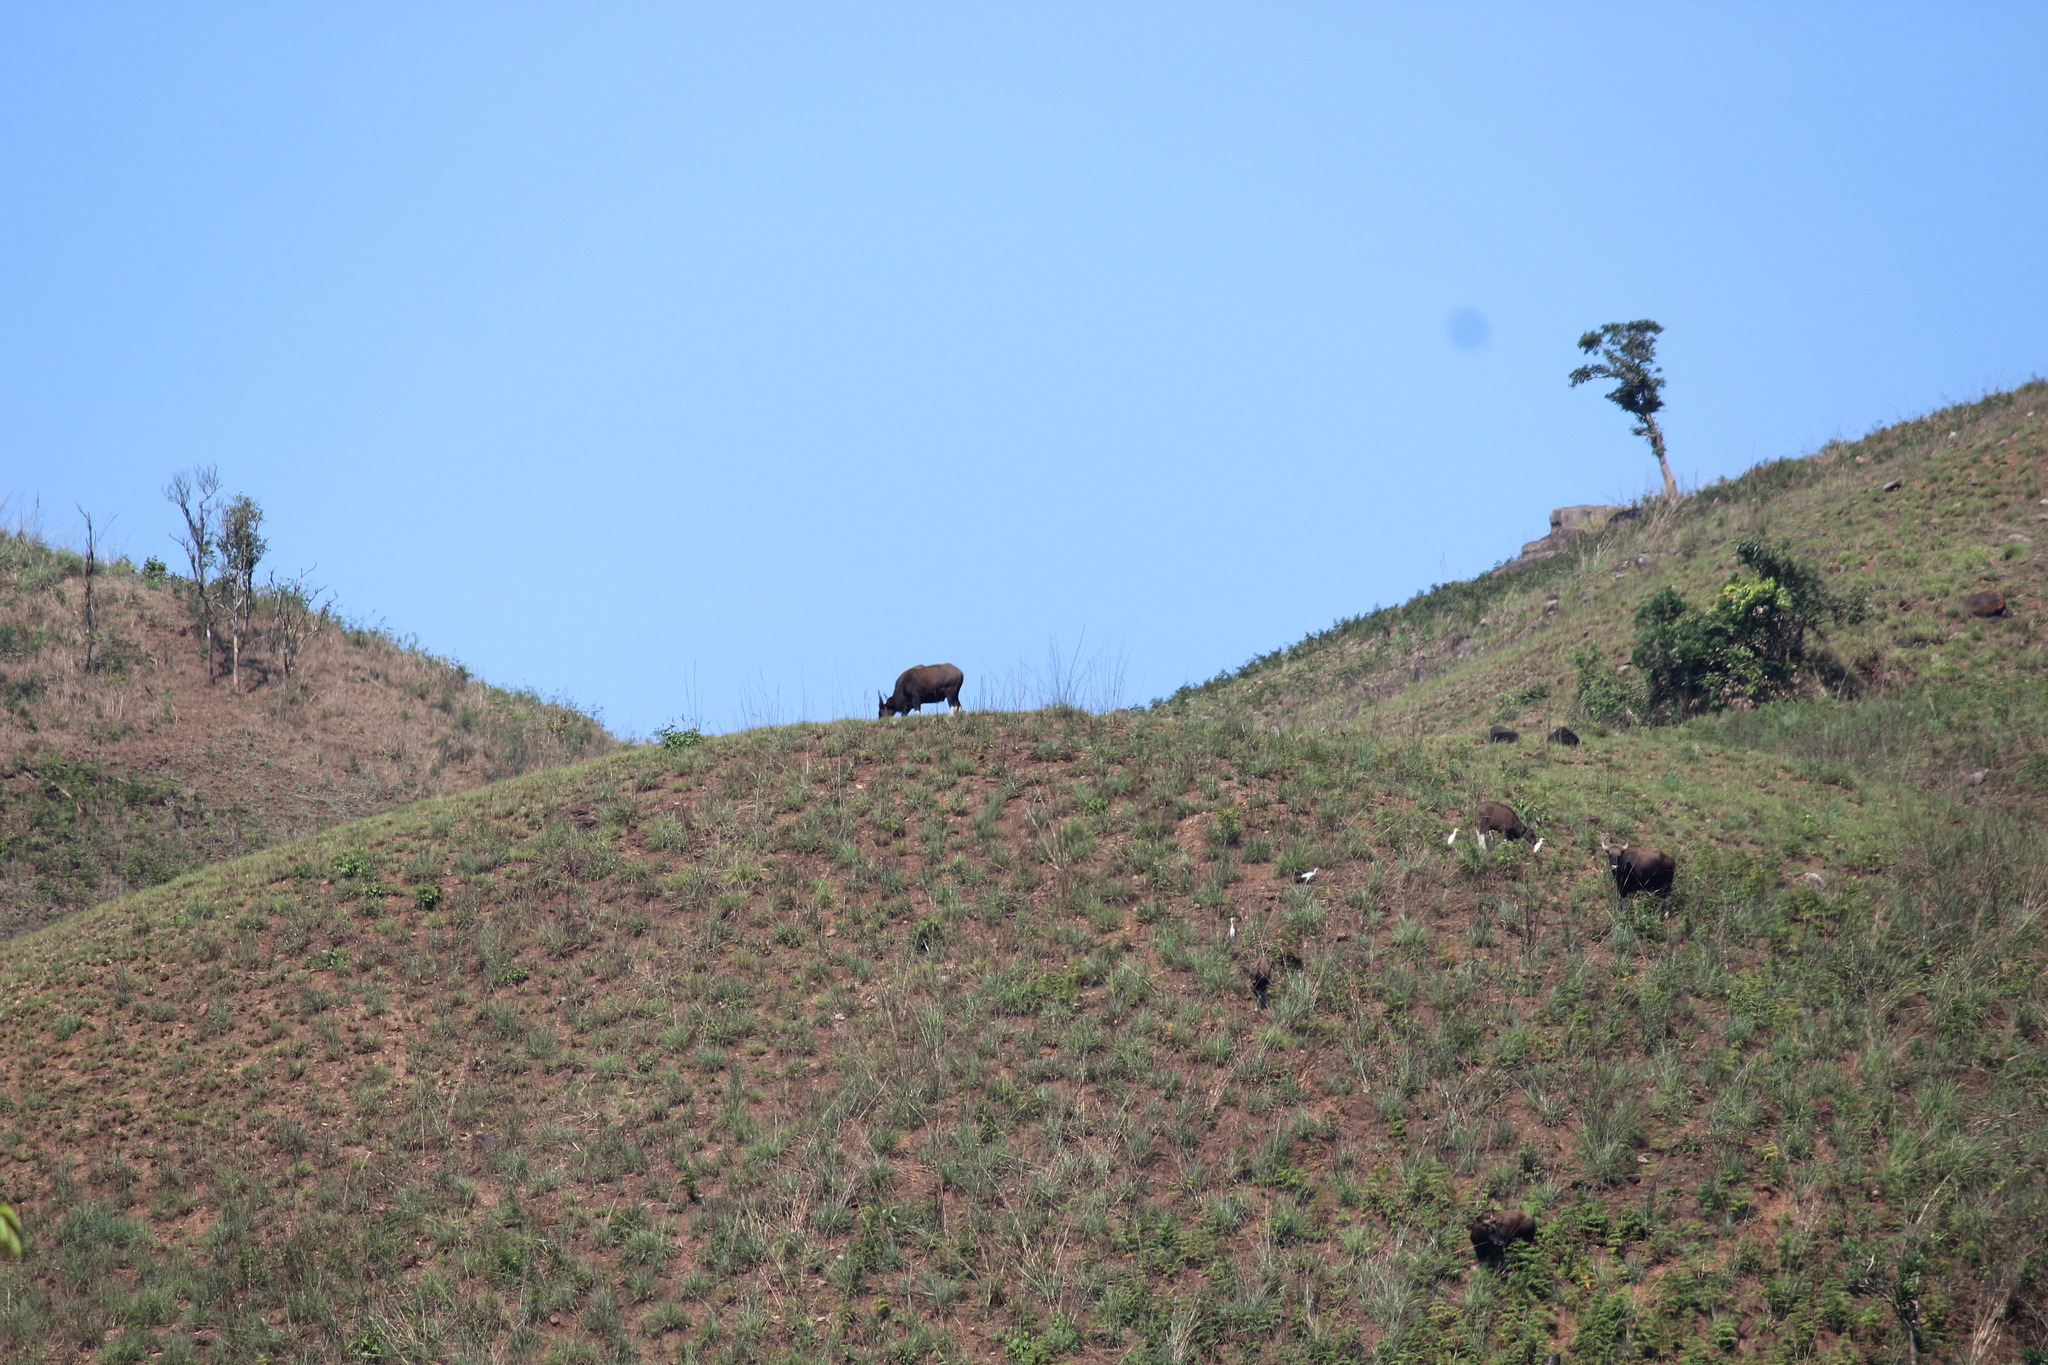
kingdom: Animalia
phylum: Chordata
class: Mammalia
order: Artiodactyla
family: Bovidae
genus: Bos
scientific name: Bos frontalis
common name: Gaur
